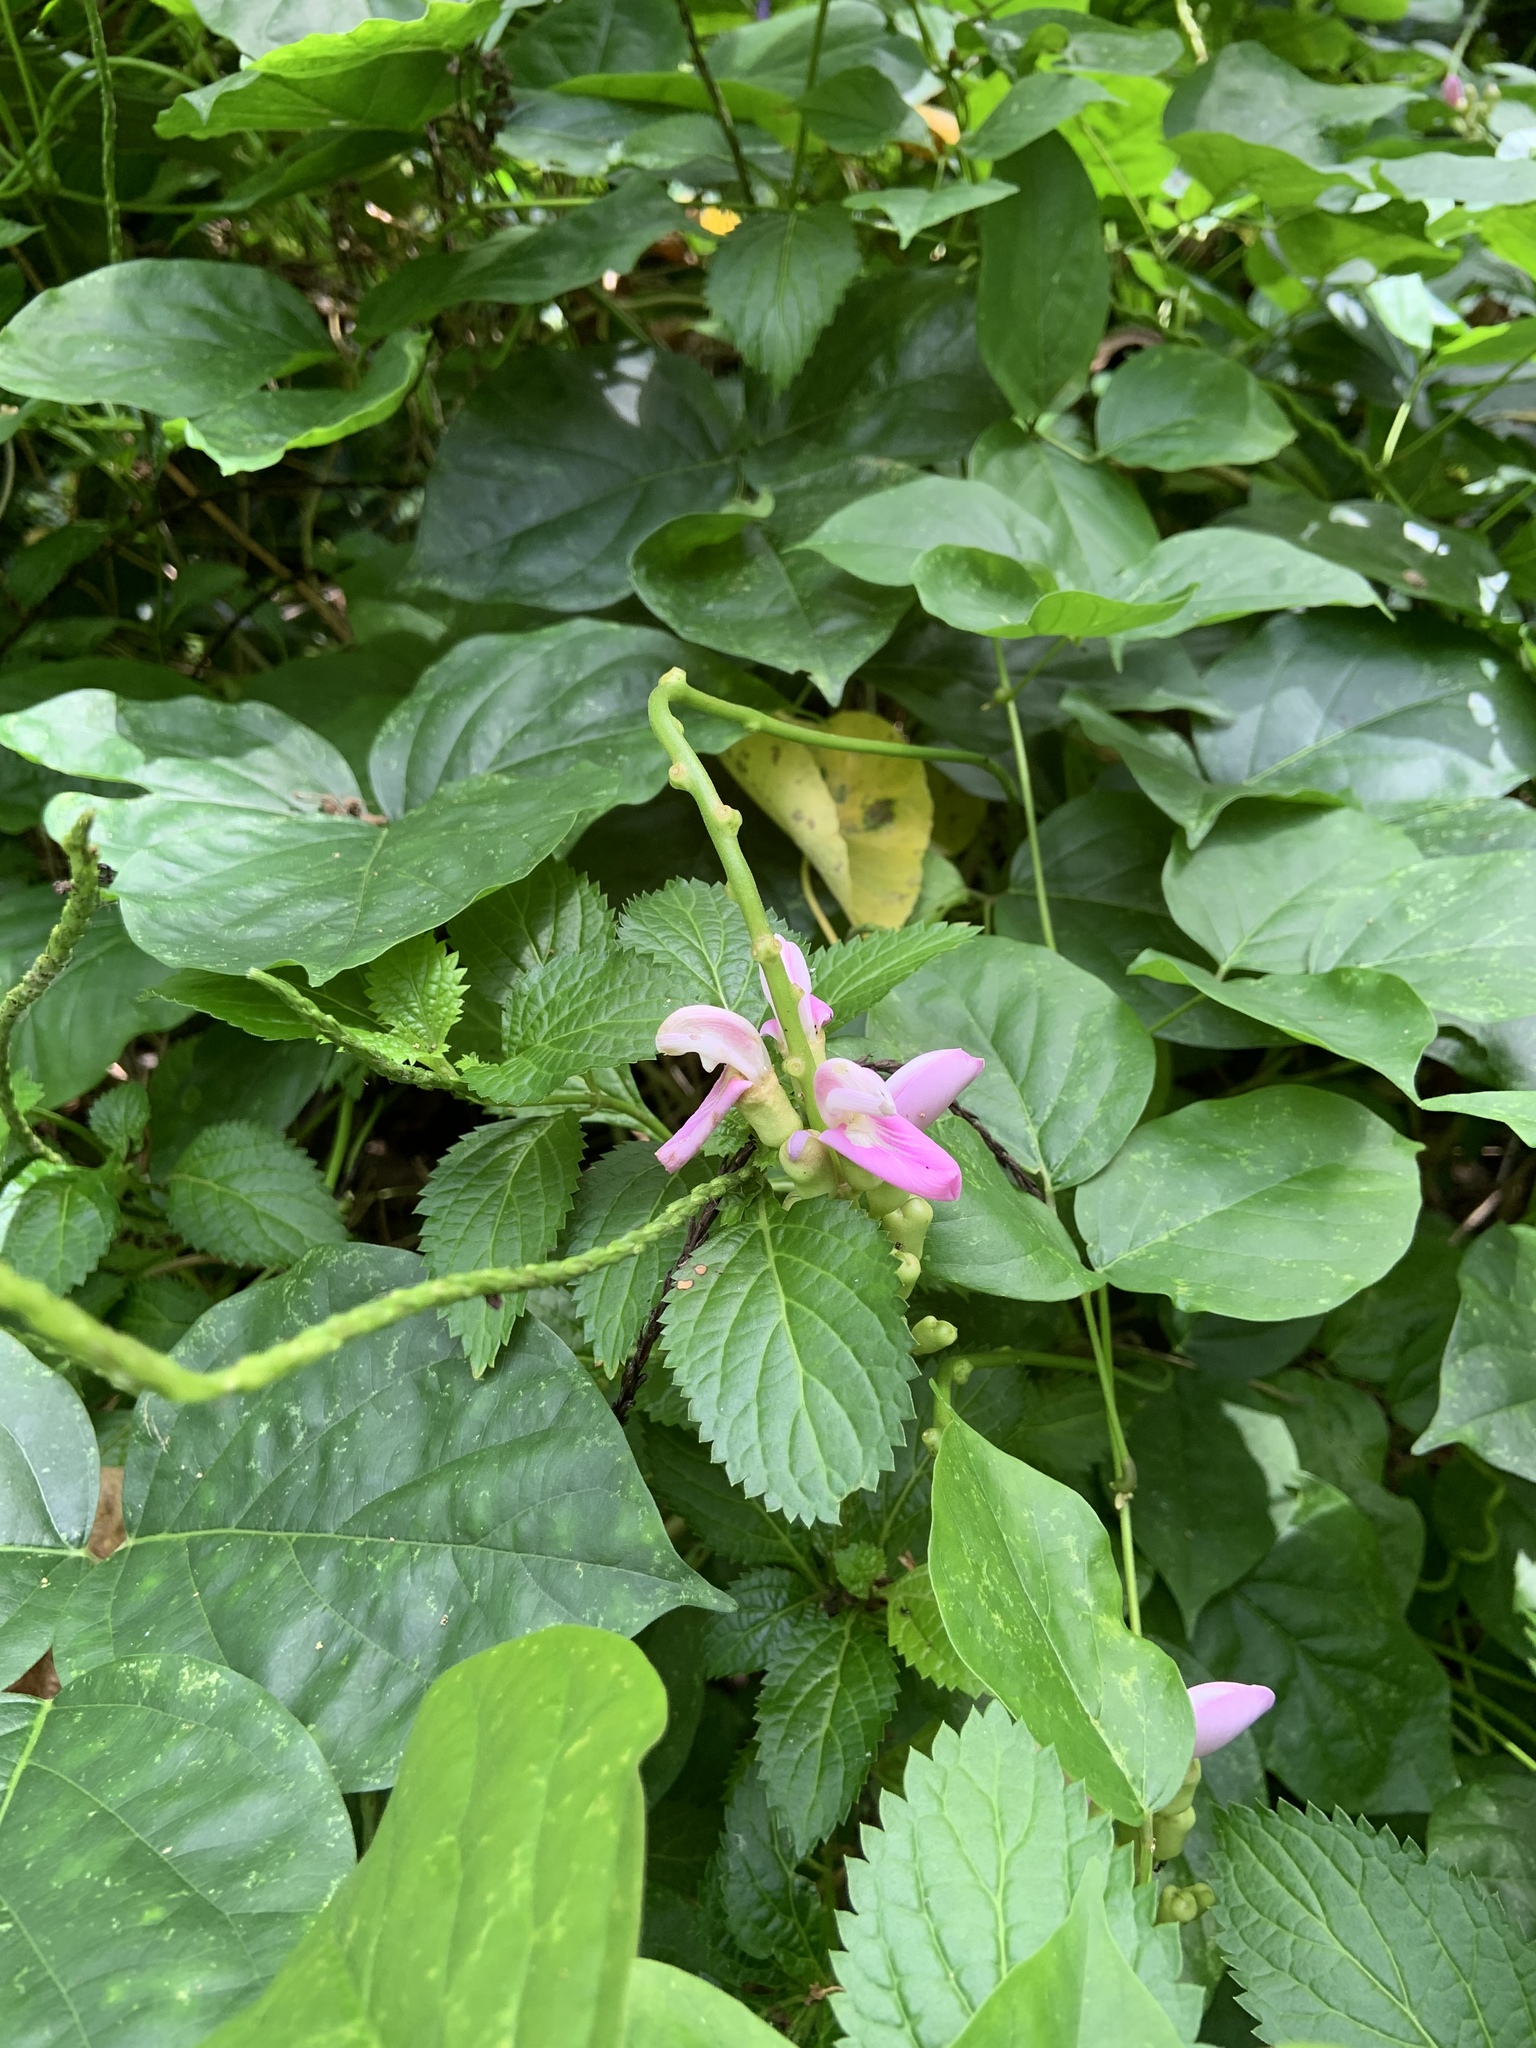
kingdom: Plantae
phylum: Tracheophyta
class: Magnoliopsida
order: Fabales
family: Fabaceae
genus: Canavalia
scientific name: Canavalia cathartica
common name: Maunaloa
